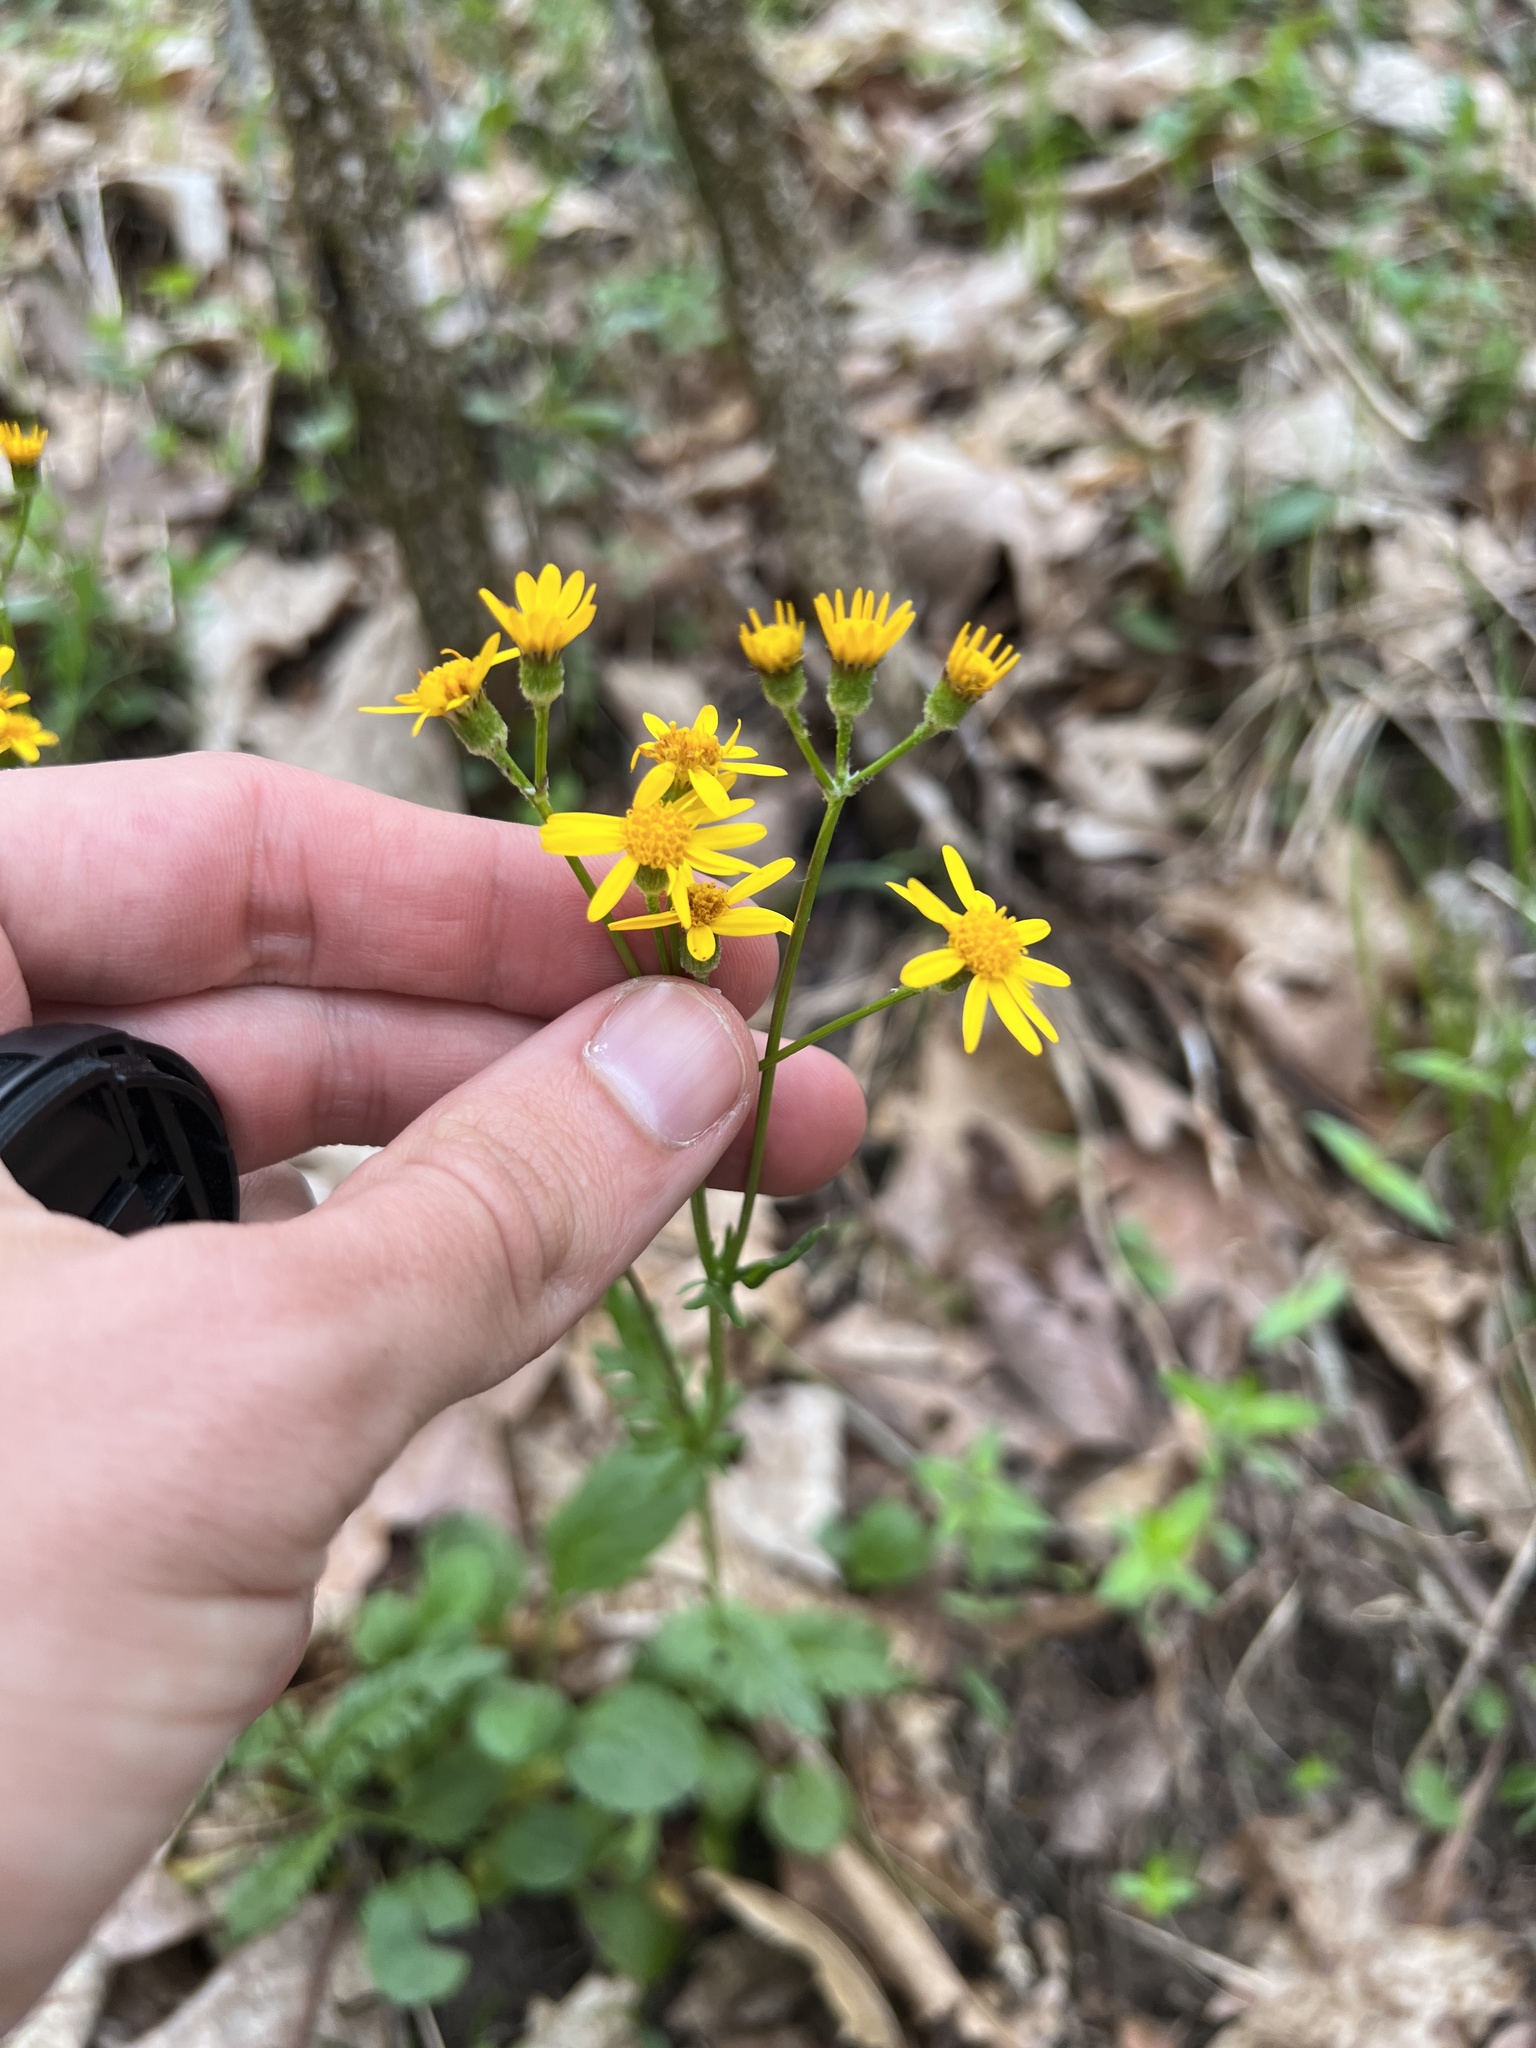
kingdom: Plantae
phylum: Tracheophyta
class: Magnoliopsida
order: Asterales
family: Asteraceae
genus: Packera
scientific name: Packera obovata
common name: Round-leaf ragwort
